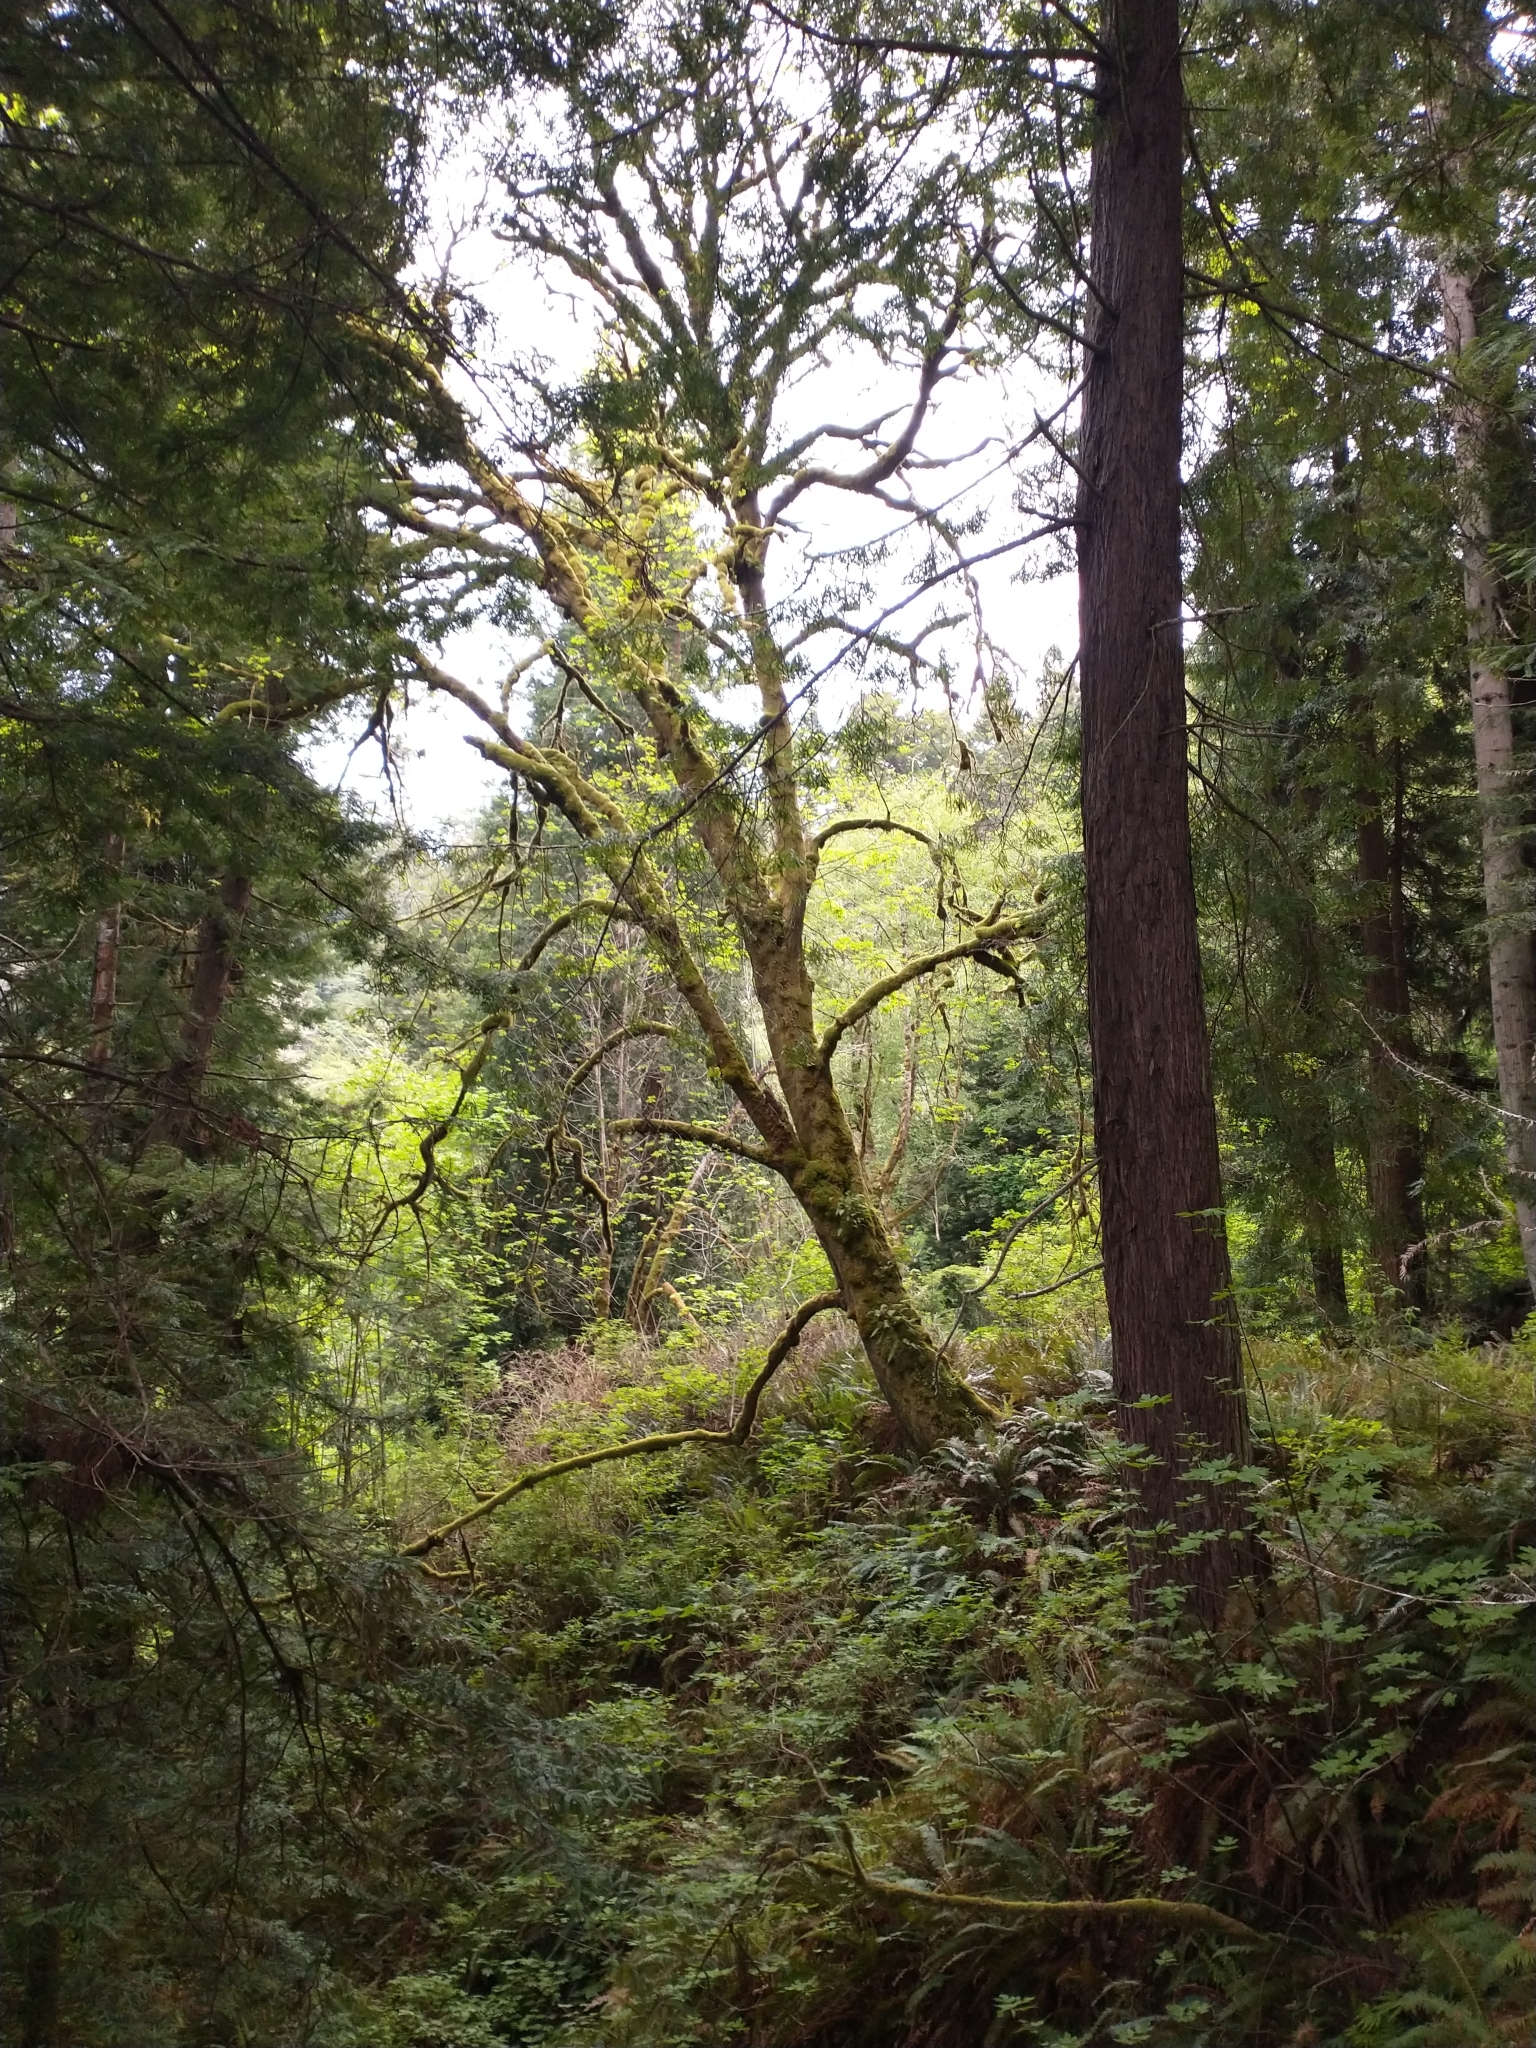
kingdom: Plantae
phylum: Tracheophyta
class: Pinopsida
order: Pinales
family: Cupressaceae
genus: Sequoia
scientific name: Sequoia sempervirens
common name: Coast redwood
